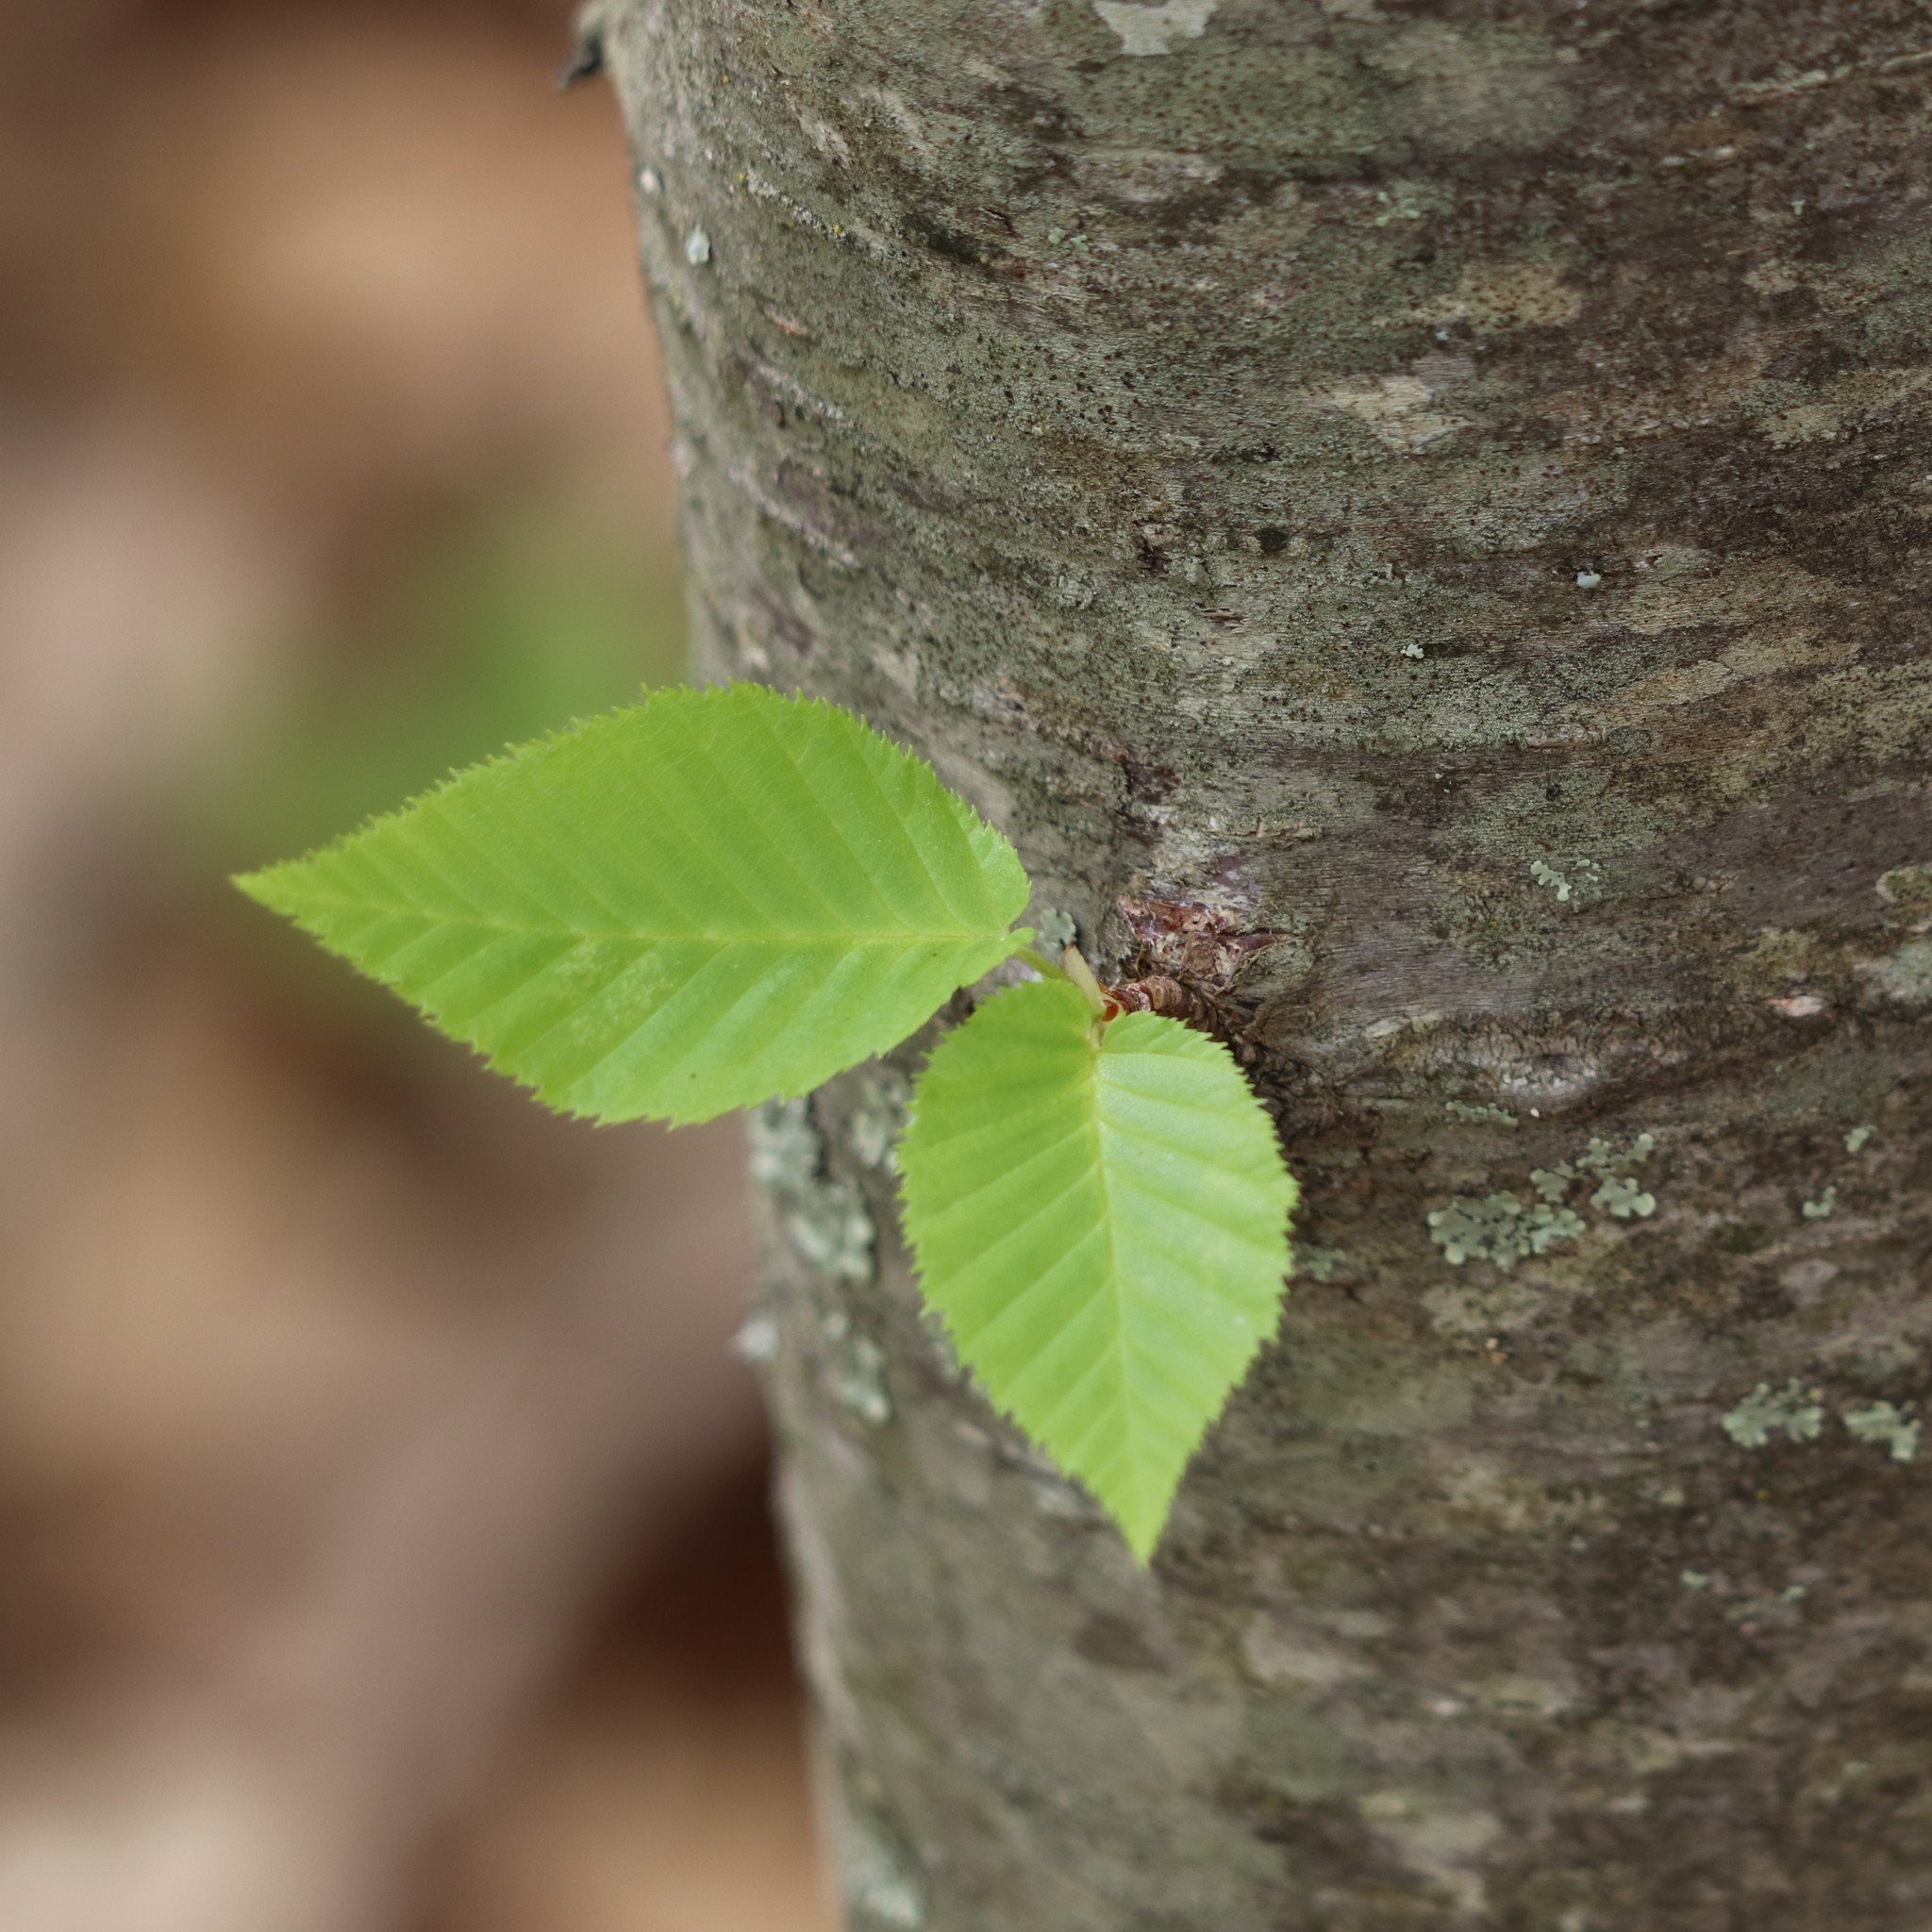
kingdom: Plantae
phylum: Tracheophyta
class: Magnoliopsida
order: Fagales
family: Betulaceae
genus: Betula
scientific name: Betula lenta
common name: Black birch
